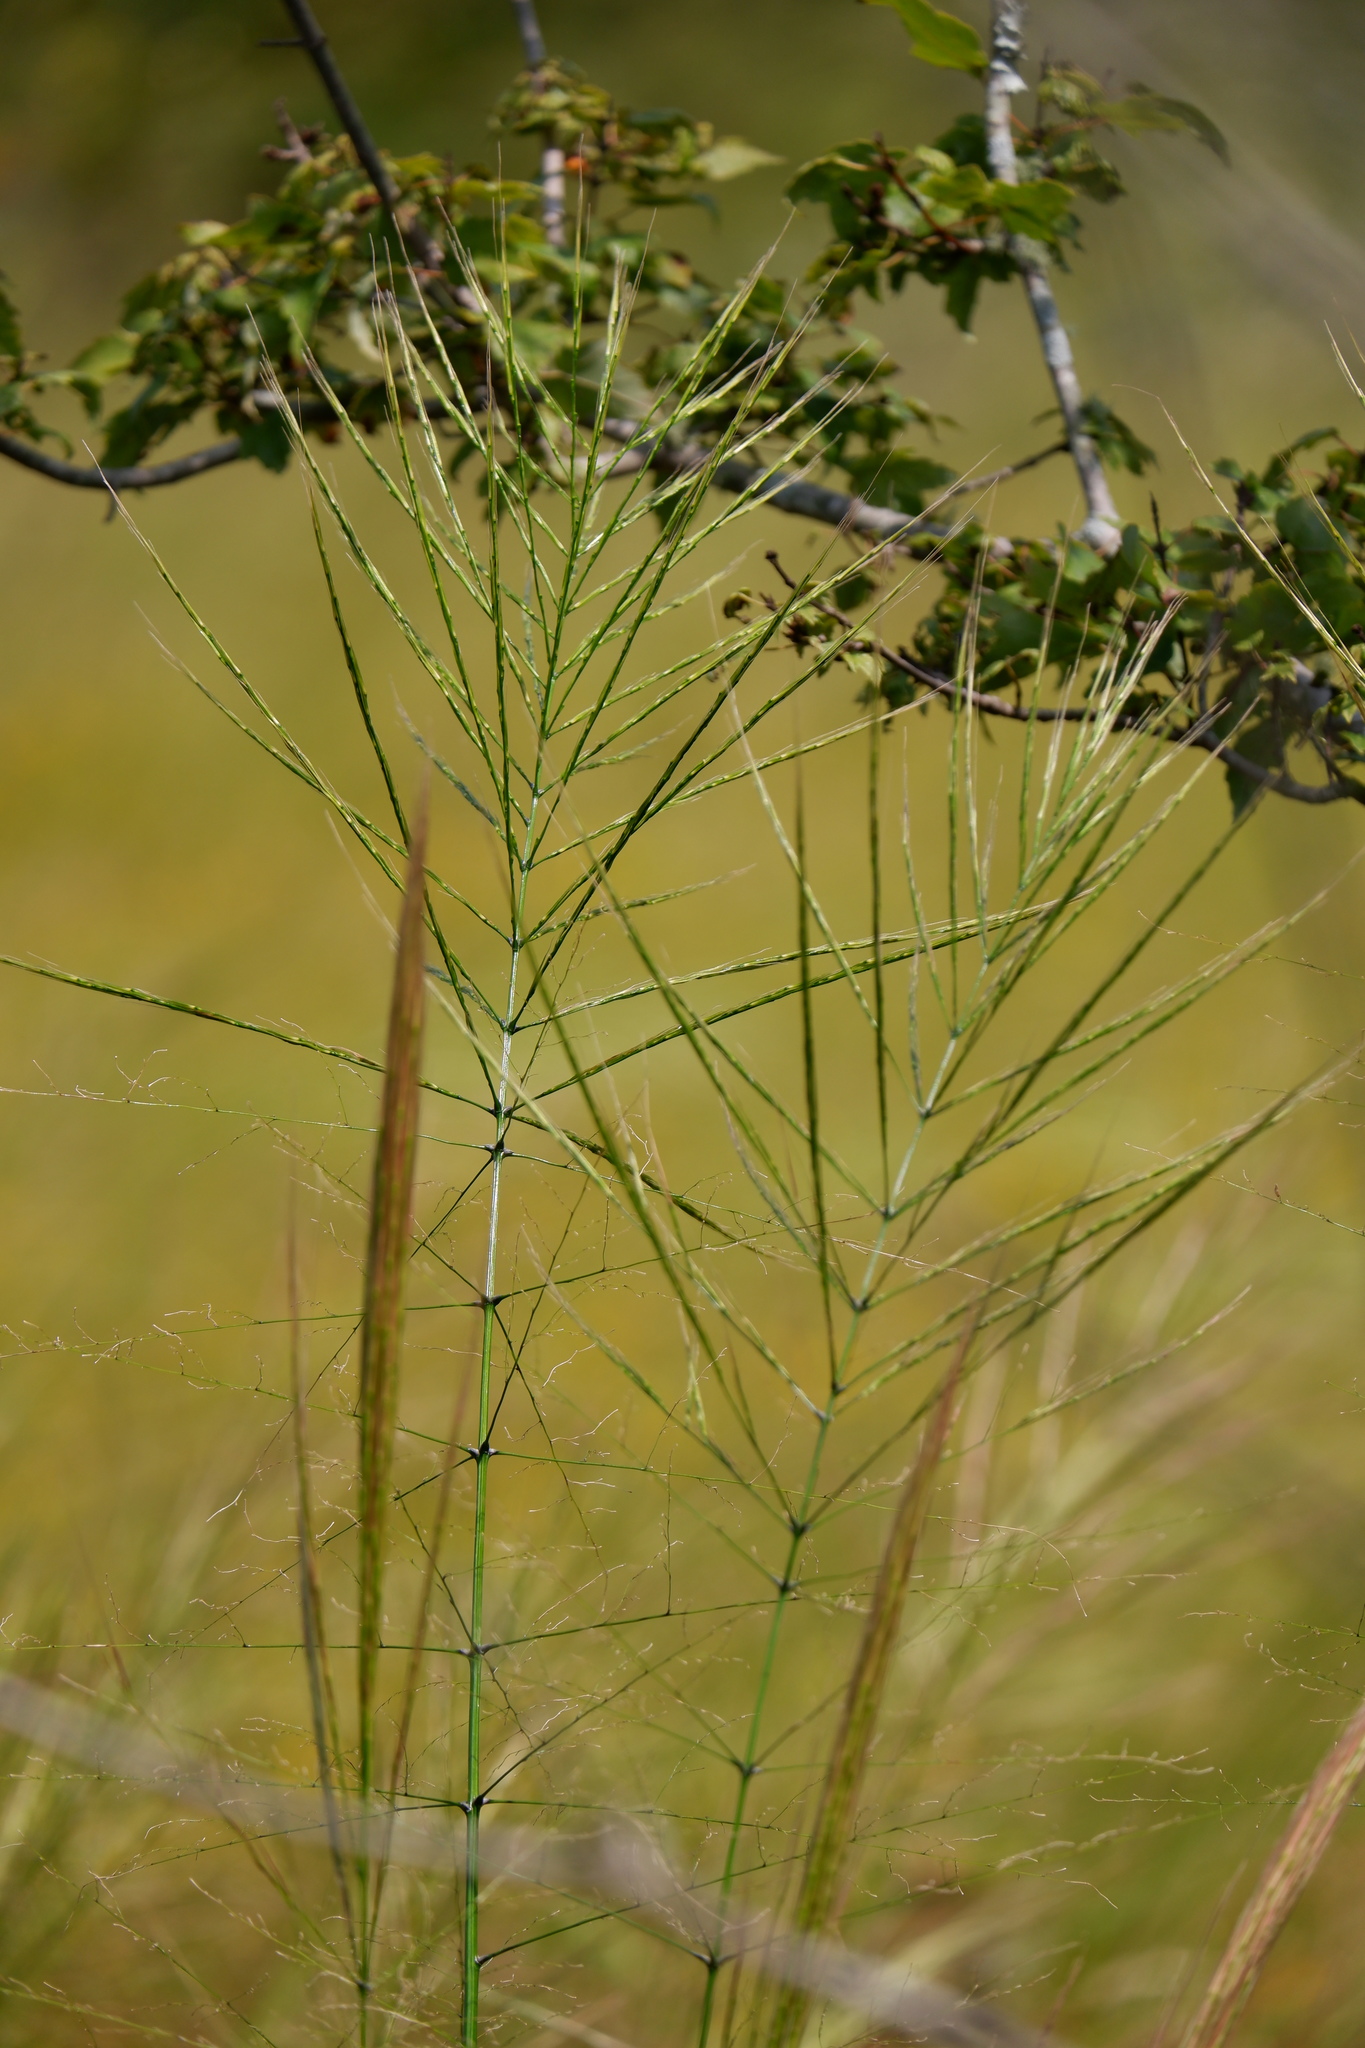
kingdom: Plantae
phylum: Tracheophyta
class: Liliopsida
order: Poales
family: Poaceae
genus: Zizania
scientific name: Zizania aquatica
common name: Annual wildrice
